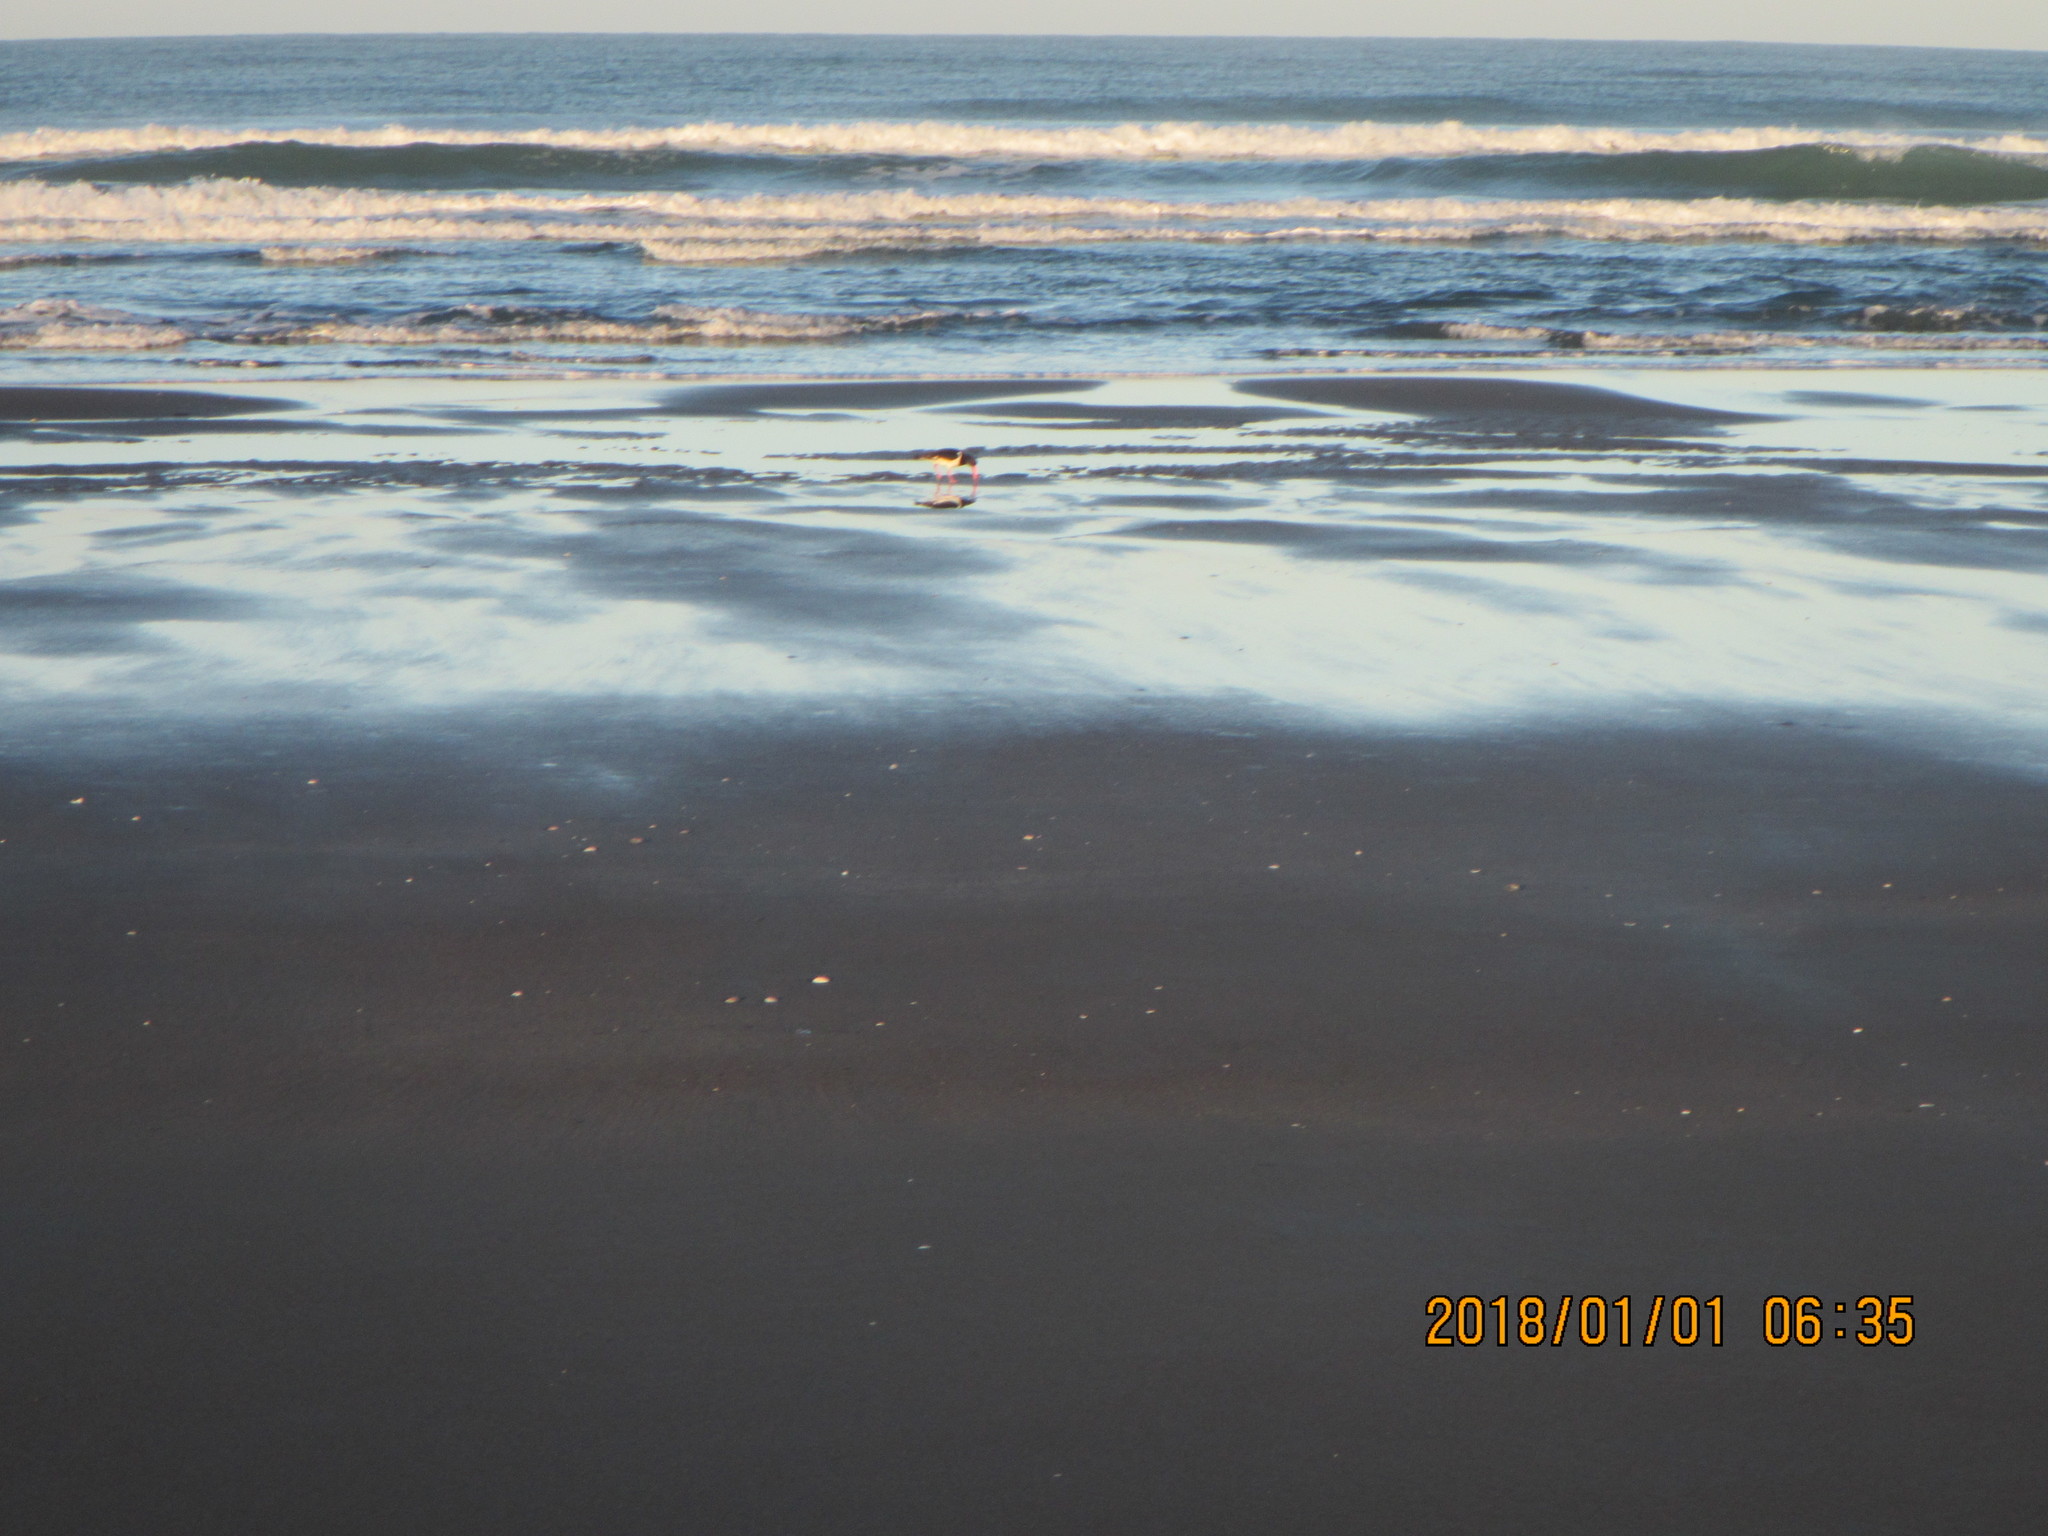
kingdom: Animalia
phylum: Chordata
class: Aves
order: Charadriiformes
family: Haematopodidae
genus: Haematopus
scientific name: Haematopus finschi
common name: South island oystercatcher
